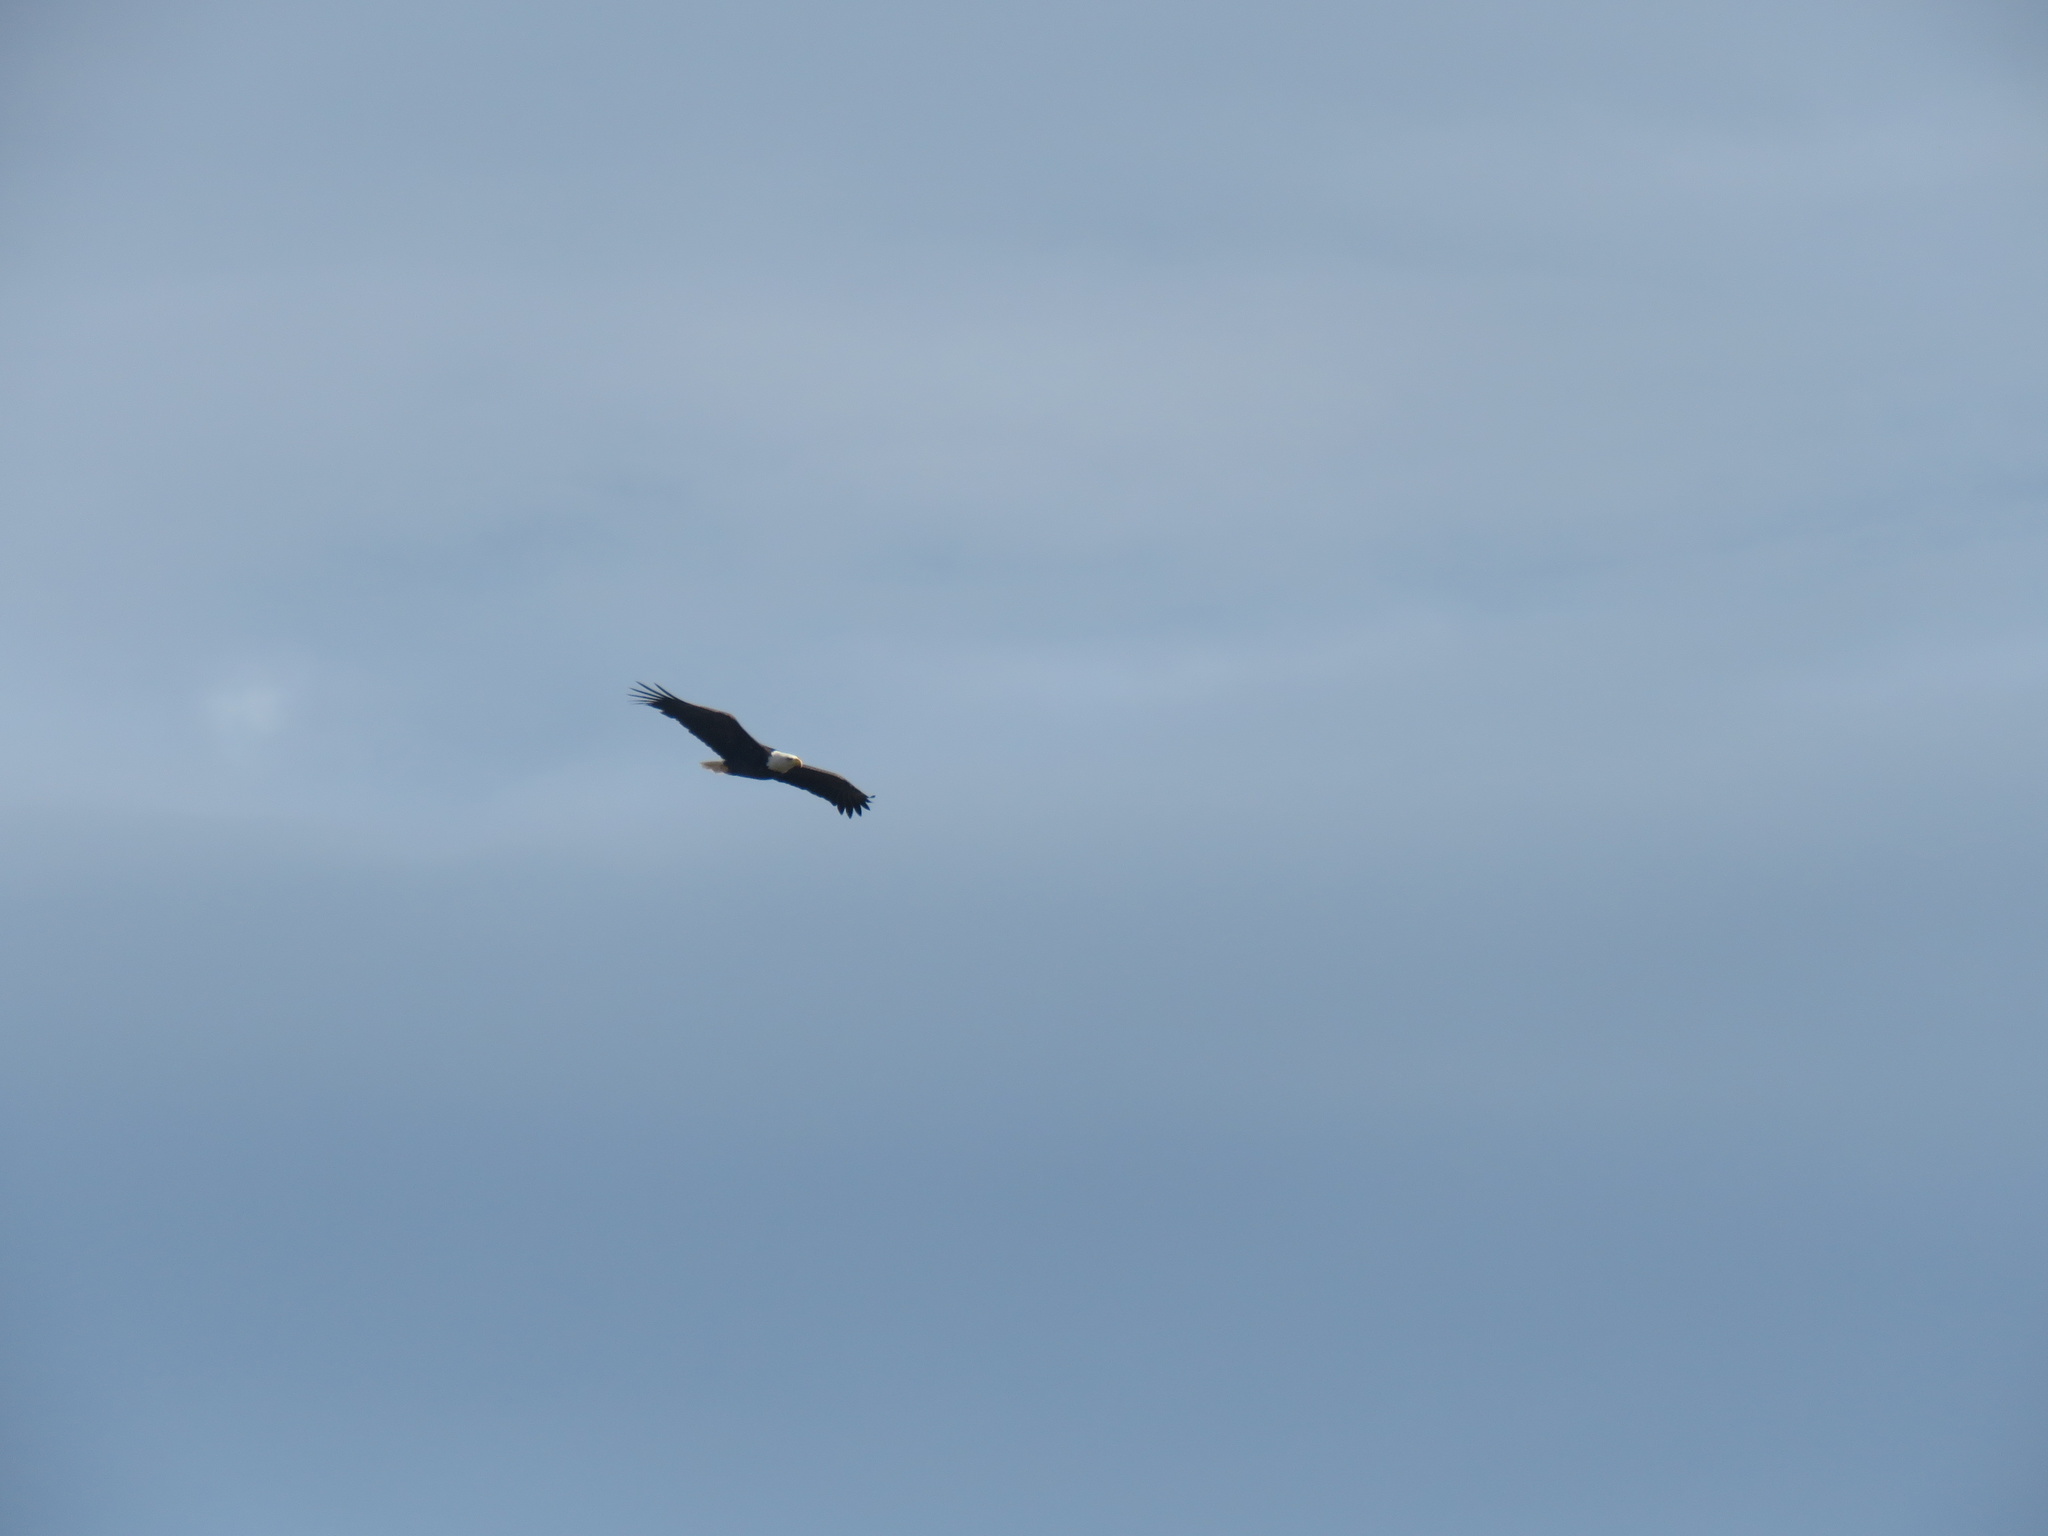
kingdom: Animalia
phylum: Chordata
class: Aves
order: Accipitriformes
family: Accipitridae
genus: Haliaeetus
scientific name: Haliaeetus leucocephalus
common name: Bald eagle
